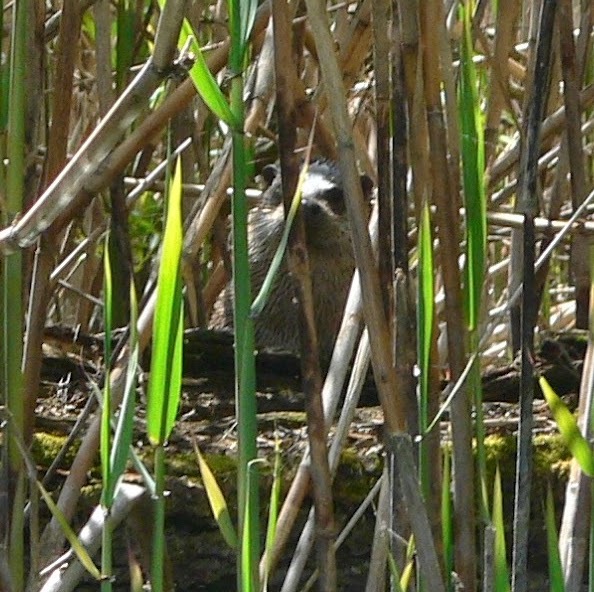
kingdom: Animalia
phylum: Chordata
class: Mammalia
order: Carnivora
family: Mustelidae
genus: Lutra
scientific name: Lutra lutra
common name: European otter
